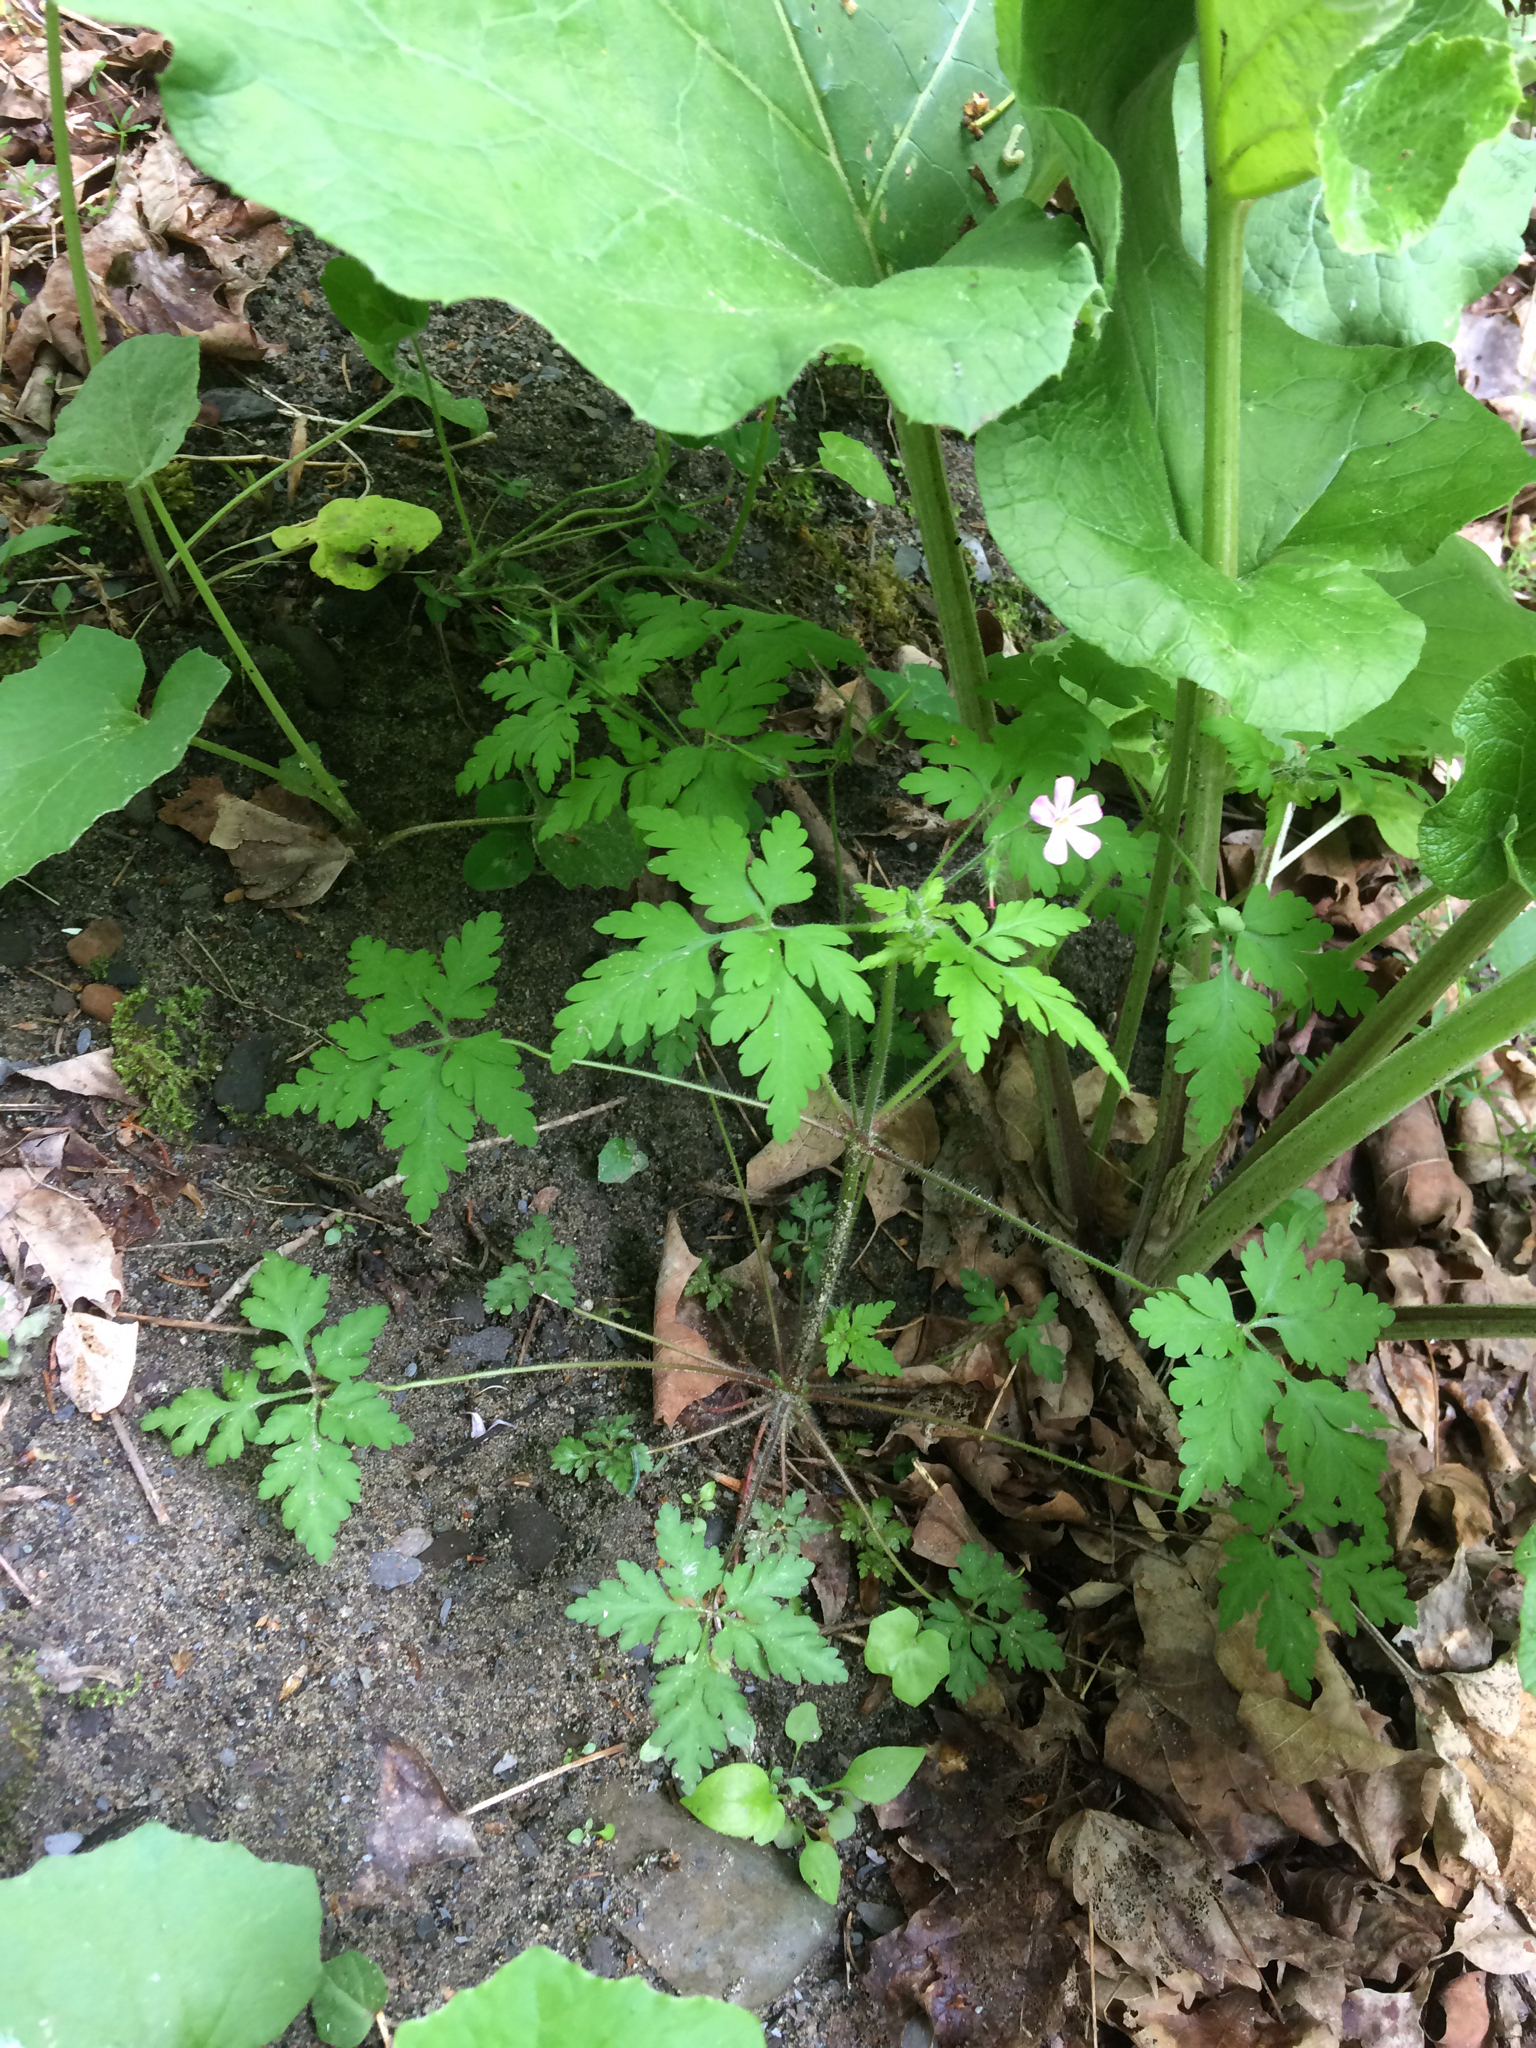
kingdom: Plantae
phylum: Tracheophyta
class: Magnoliopsida
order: Geraniales
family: Geraniaceae
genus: Geranium
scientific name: Geranium robertianum
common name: Herb-robert
